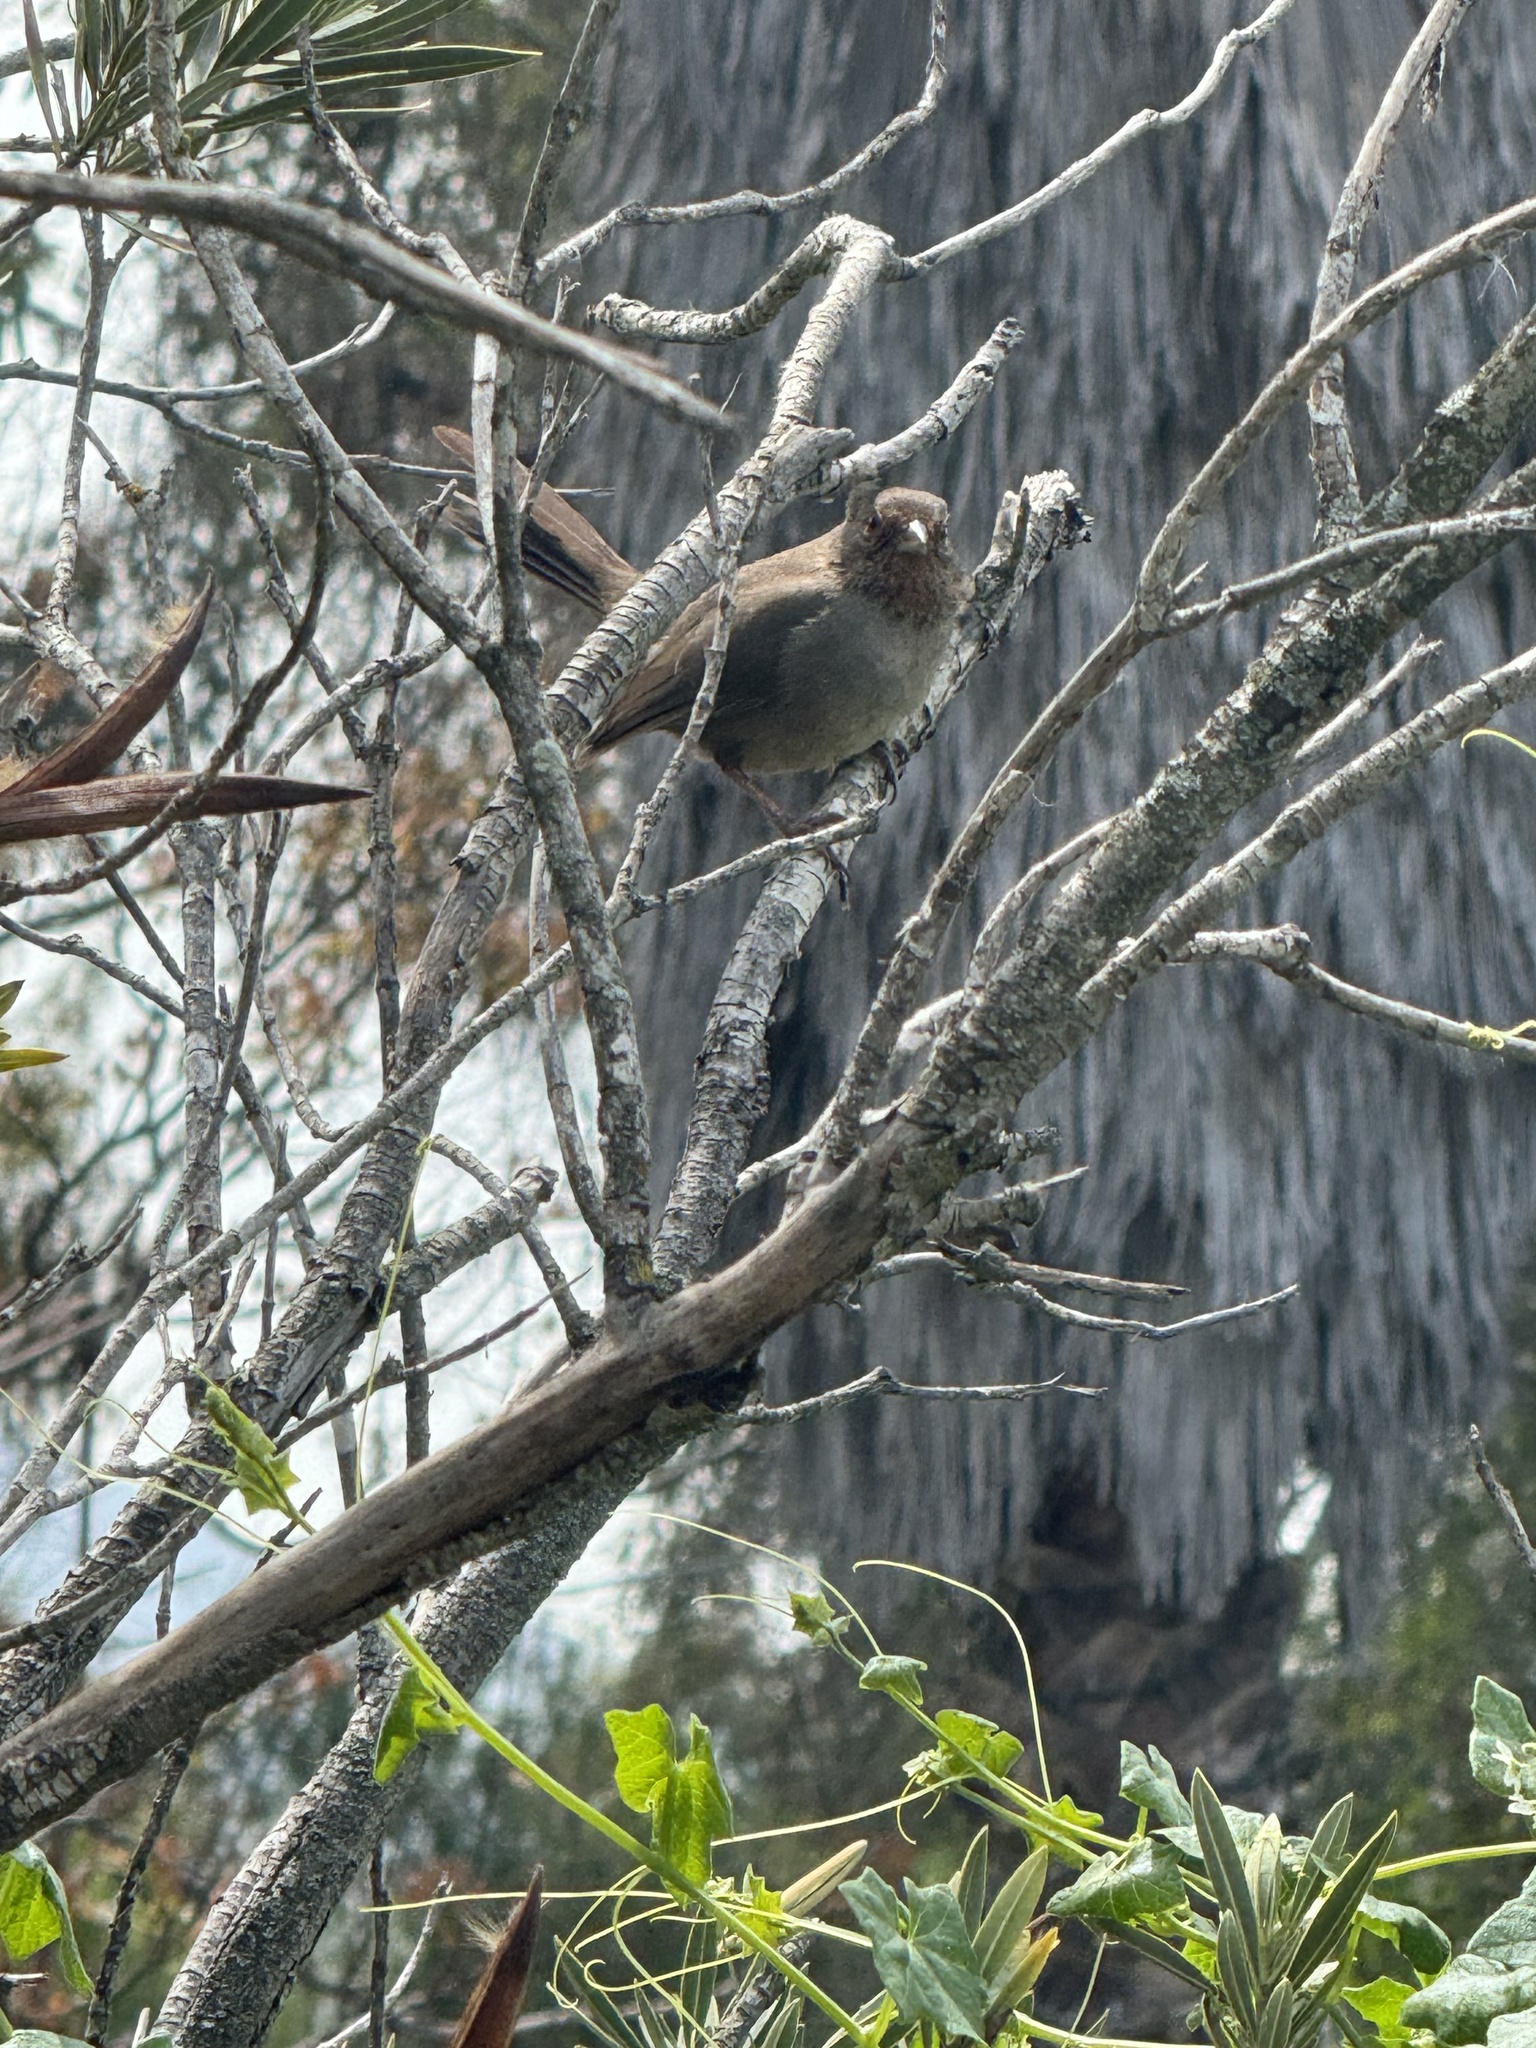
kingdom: Animalia
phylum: Chordata
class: Aves
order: Passeriformes
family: Passerellidae
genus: Melozone
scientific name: Melozone crissalis
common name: California towhee
